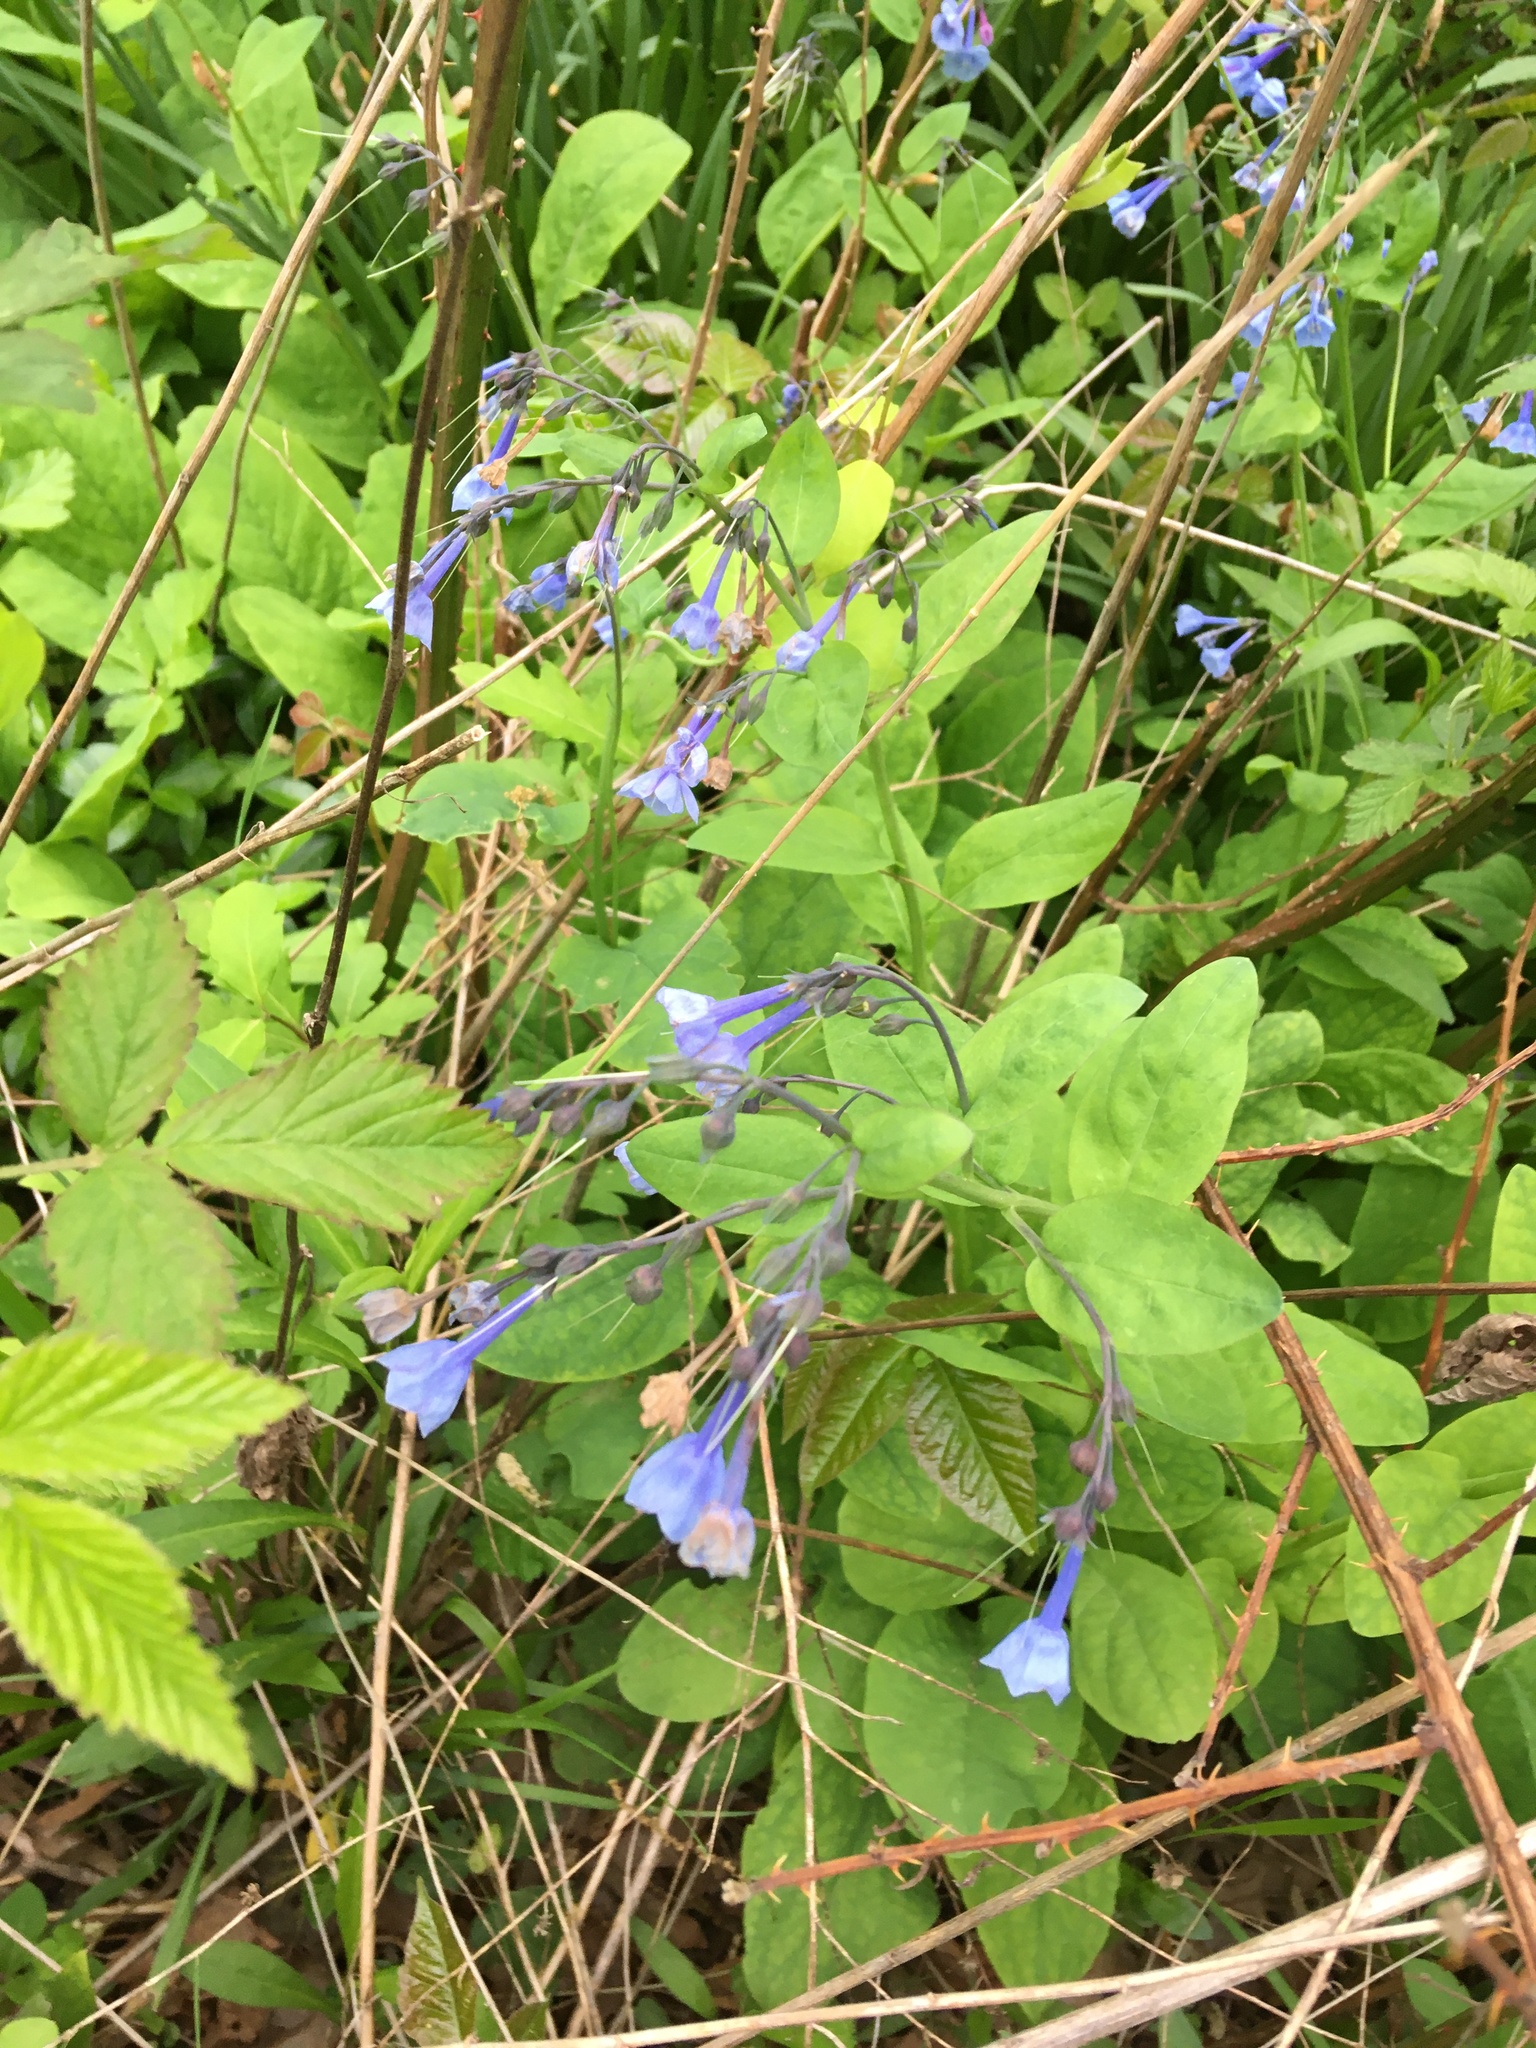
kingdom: Plantae
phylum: Tracheophyta
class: Magnoliopsida
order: Boraginales
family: Boraginaceae
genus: Mertensia
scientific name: Mertensia virginica
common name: Virginia bluebells
